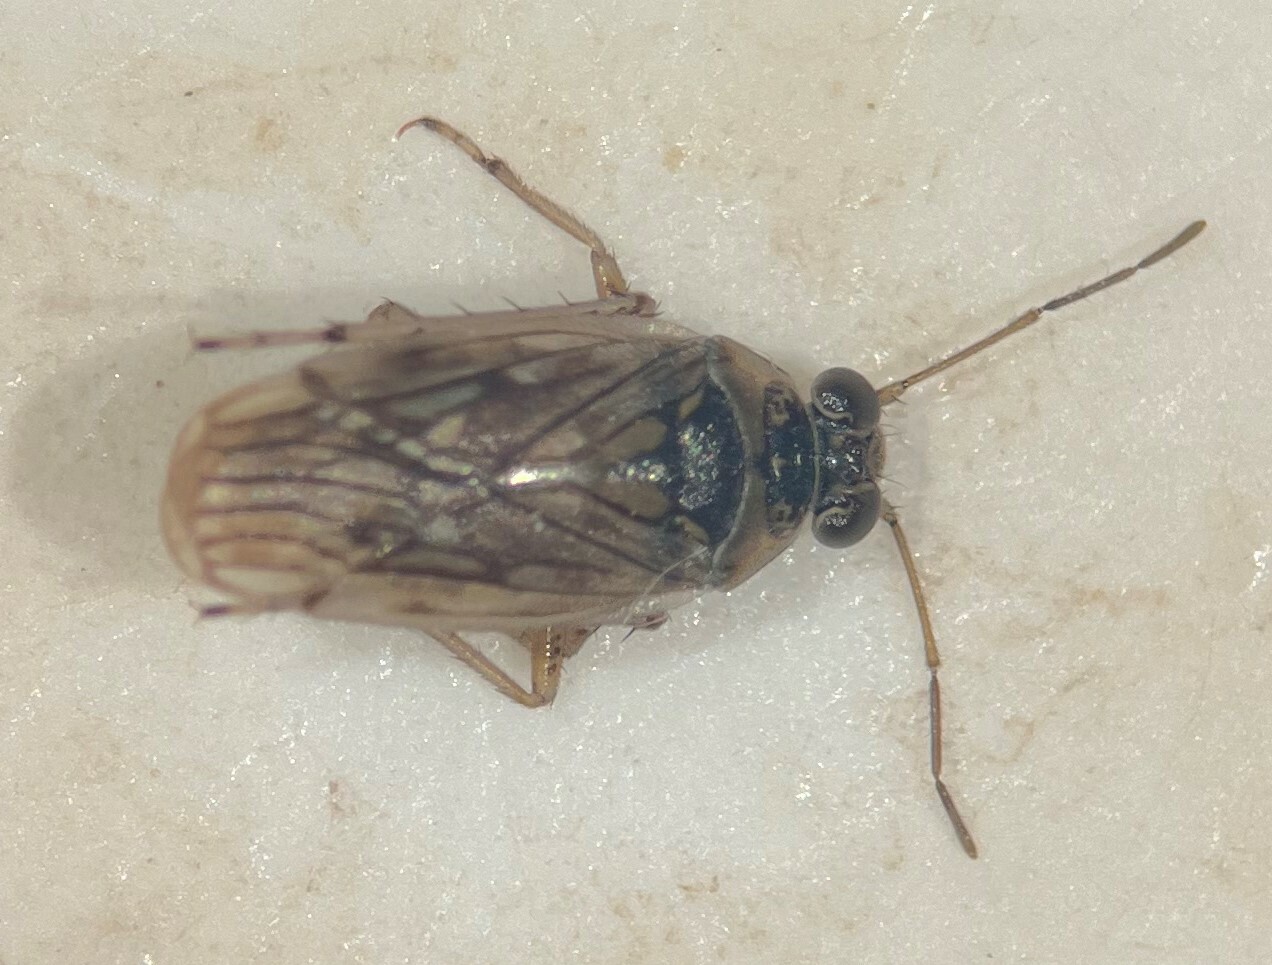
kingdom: Animalia
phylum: Arthropoda
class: Insecta
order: Hemiptera
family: Saldidae
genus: Pentacora
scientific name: Pentacora sphacelata
